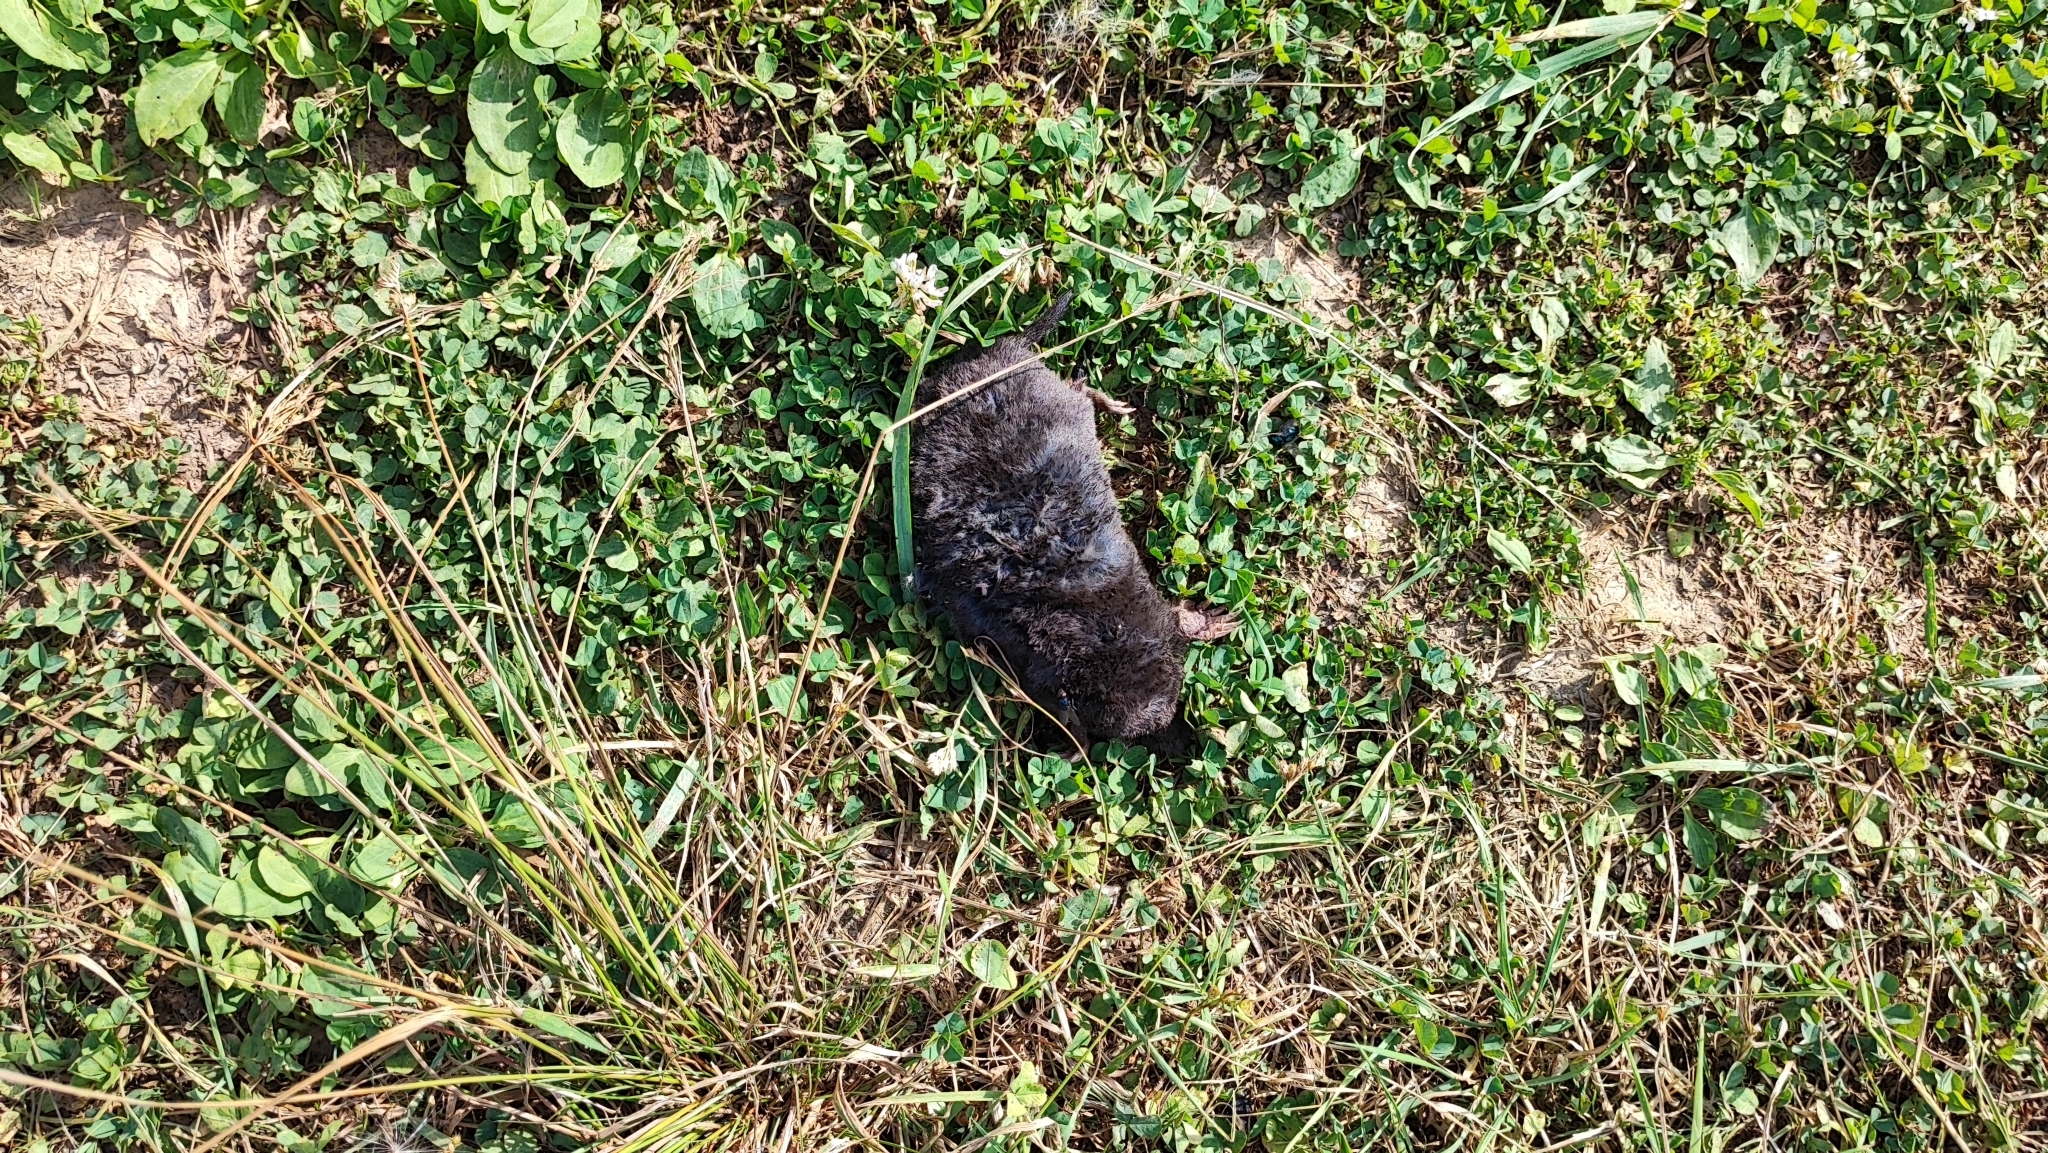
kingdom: Animalia
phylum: Chordata
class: Mammalia
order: Soricomorpha
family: Talpidae
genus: Talpa
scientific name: Talpa europaea
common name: European mole
